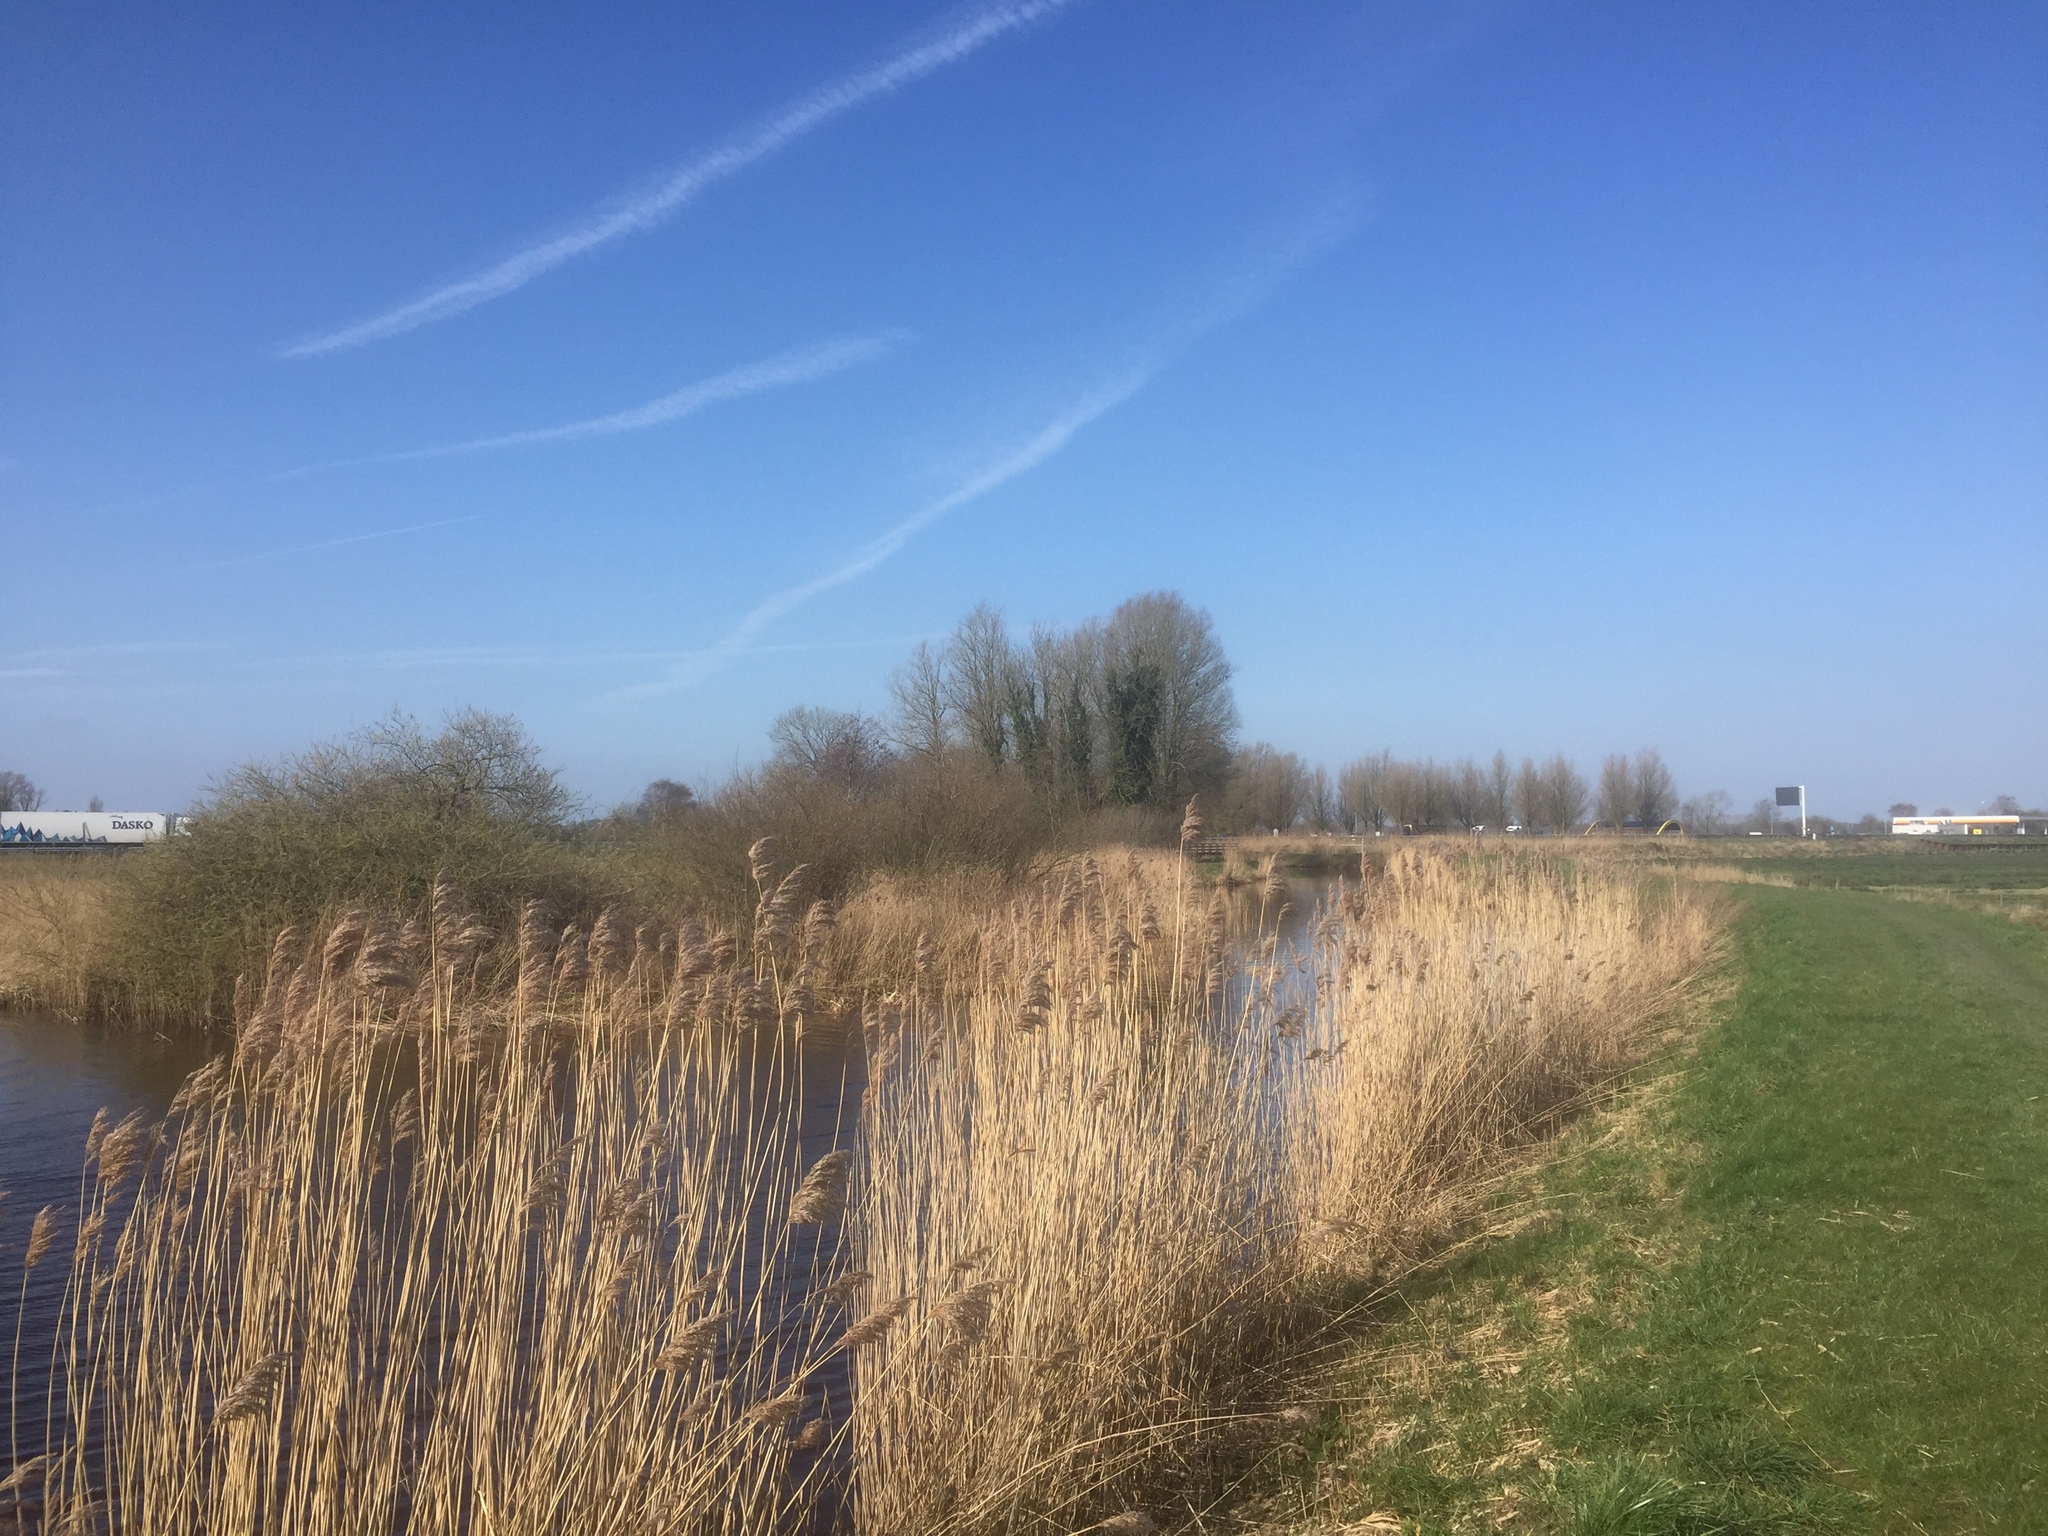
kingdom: Plantae
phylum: Tracheophyta
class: Liliopsida
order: Poales
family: Poaceae
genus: Phragmites
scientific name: Phragmites australis
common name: Common reed
